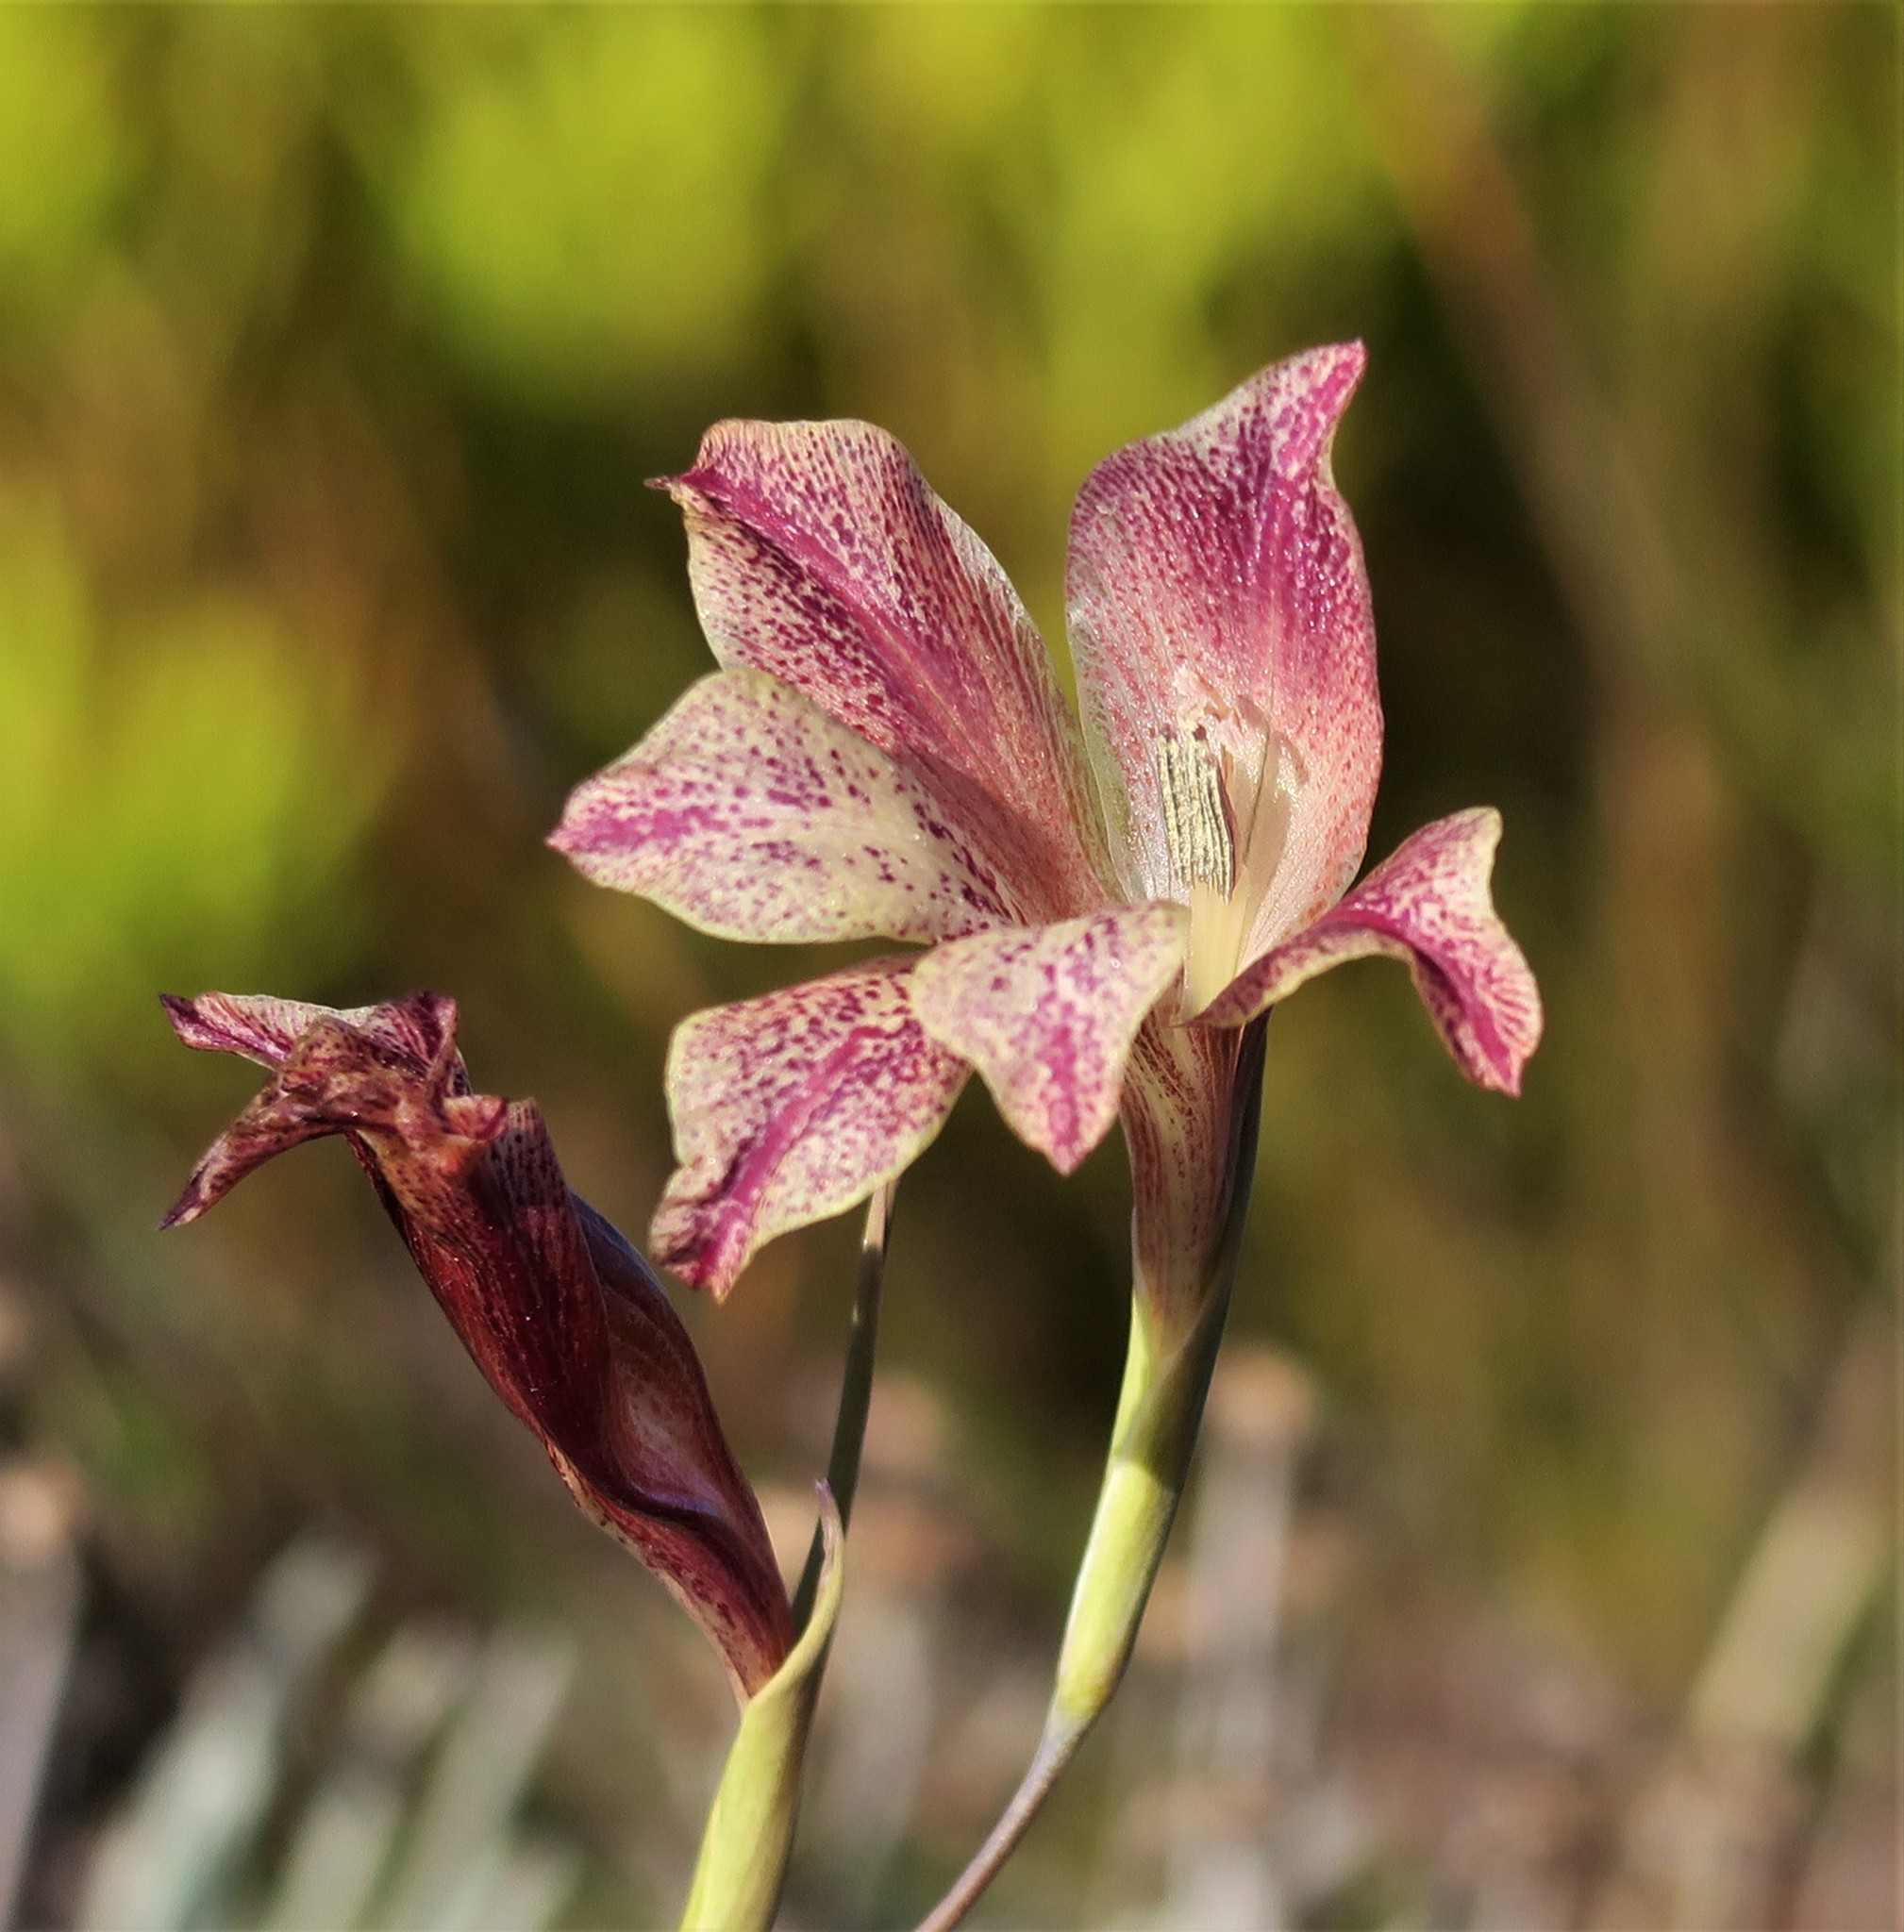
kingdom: Plantae
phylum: Tracheophyta
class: Liliopsida
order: Asparagales
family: Iridaceae
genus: Gladiolus
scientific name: Gladiolus maculatus
